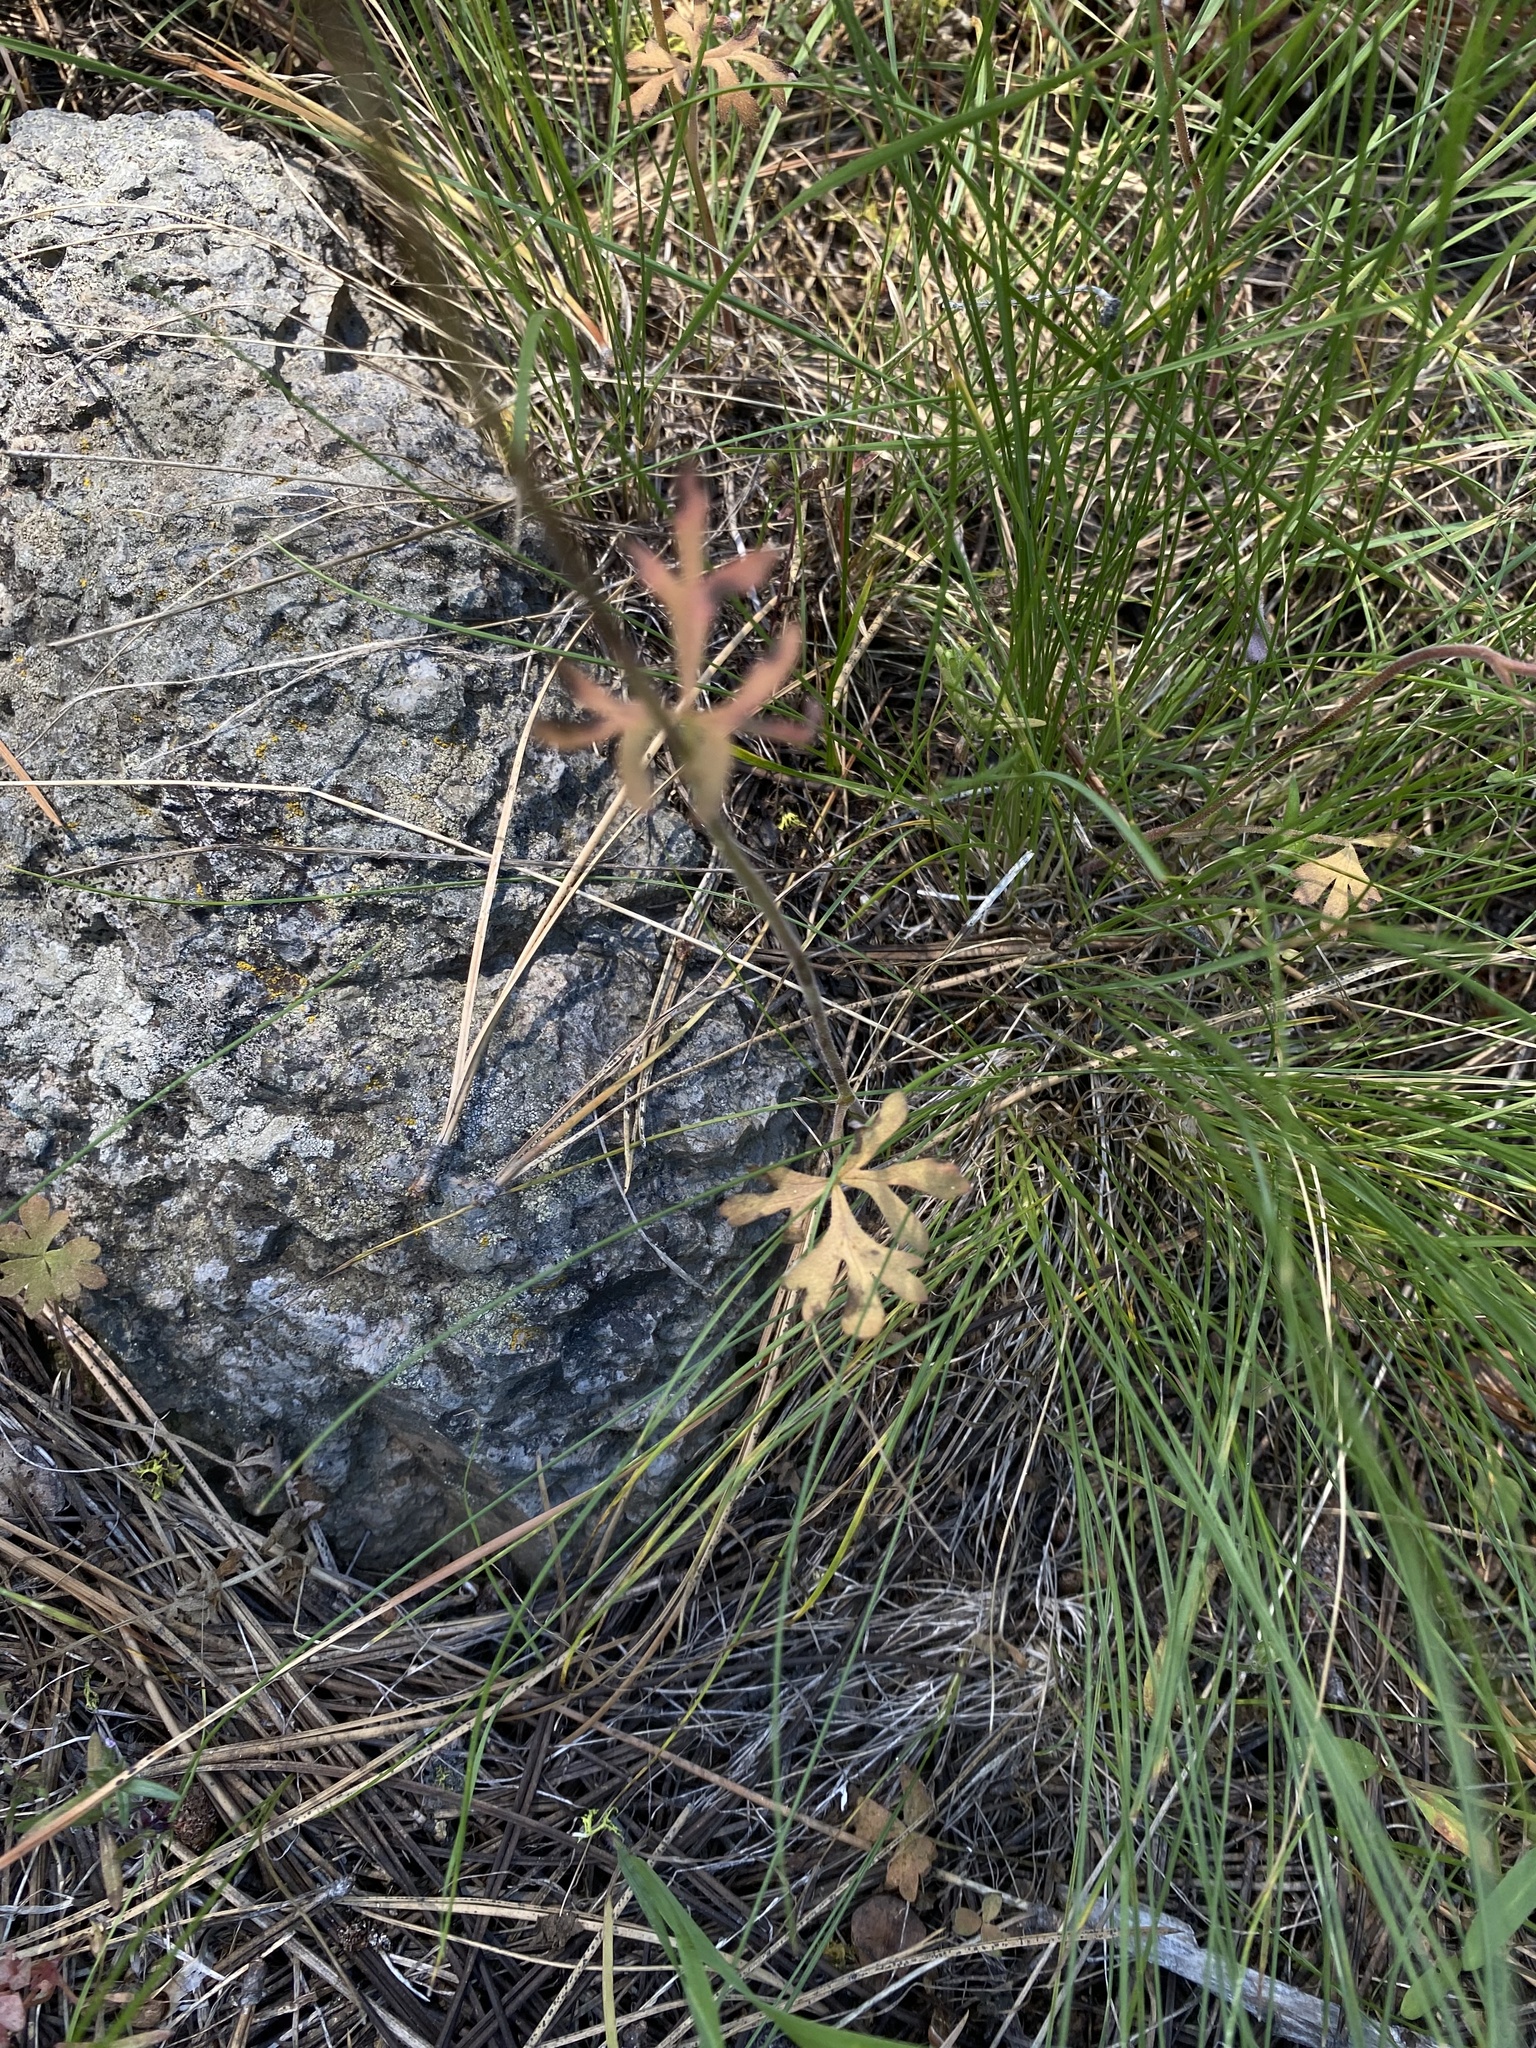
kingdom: Plantae
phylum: Tracheophyta
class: Magnoliopsida
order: Saxifragales
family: Saxifragaceae
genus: Lithophragma
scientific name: Lithophragma parviflorum
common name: Small-flowered fringe-cup
